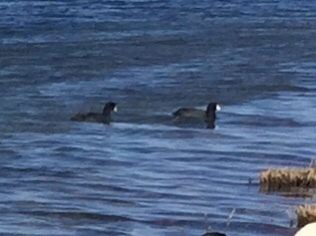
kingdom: Animalia
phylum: Chordata
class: Aves
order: Gruiformes
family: Rallidae
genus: Fulica
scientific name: Fulica americana
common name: American coot
